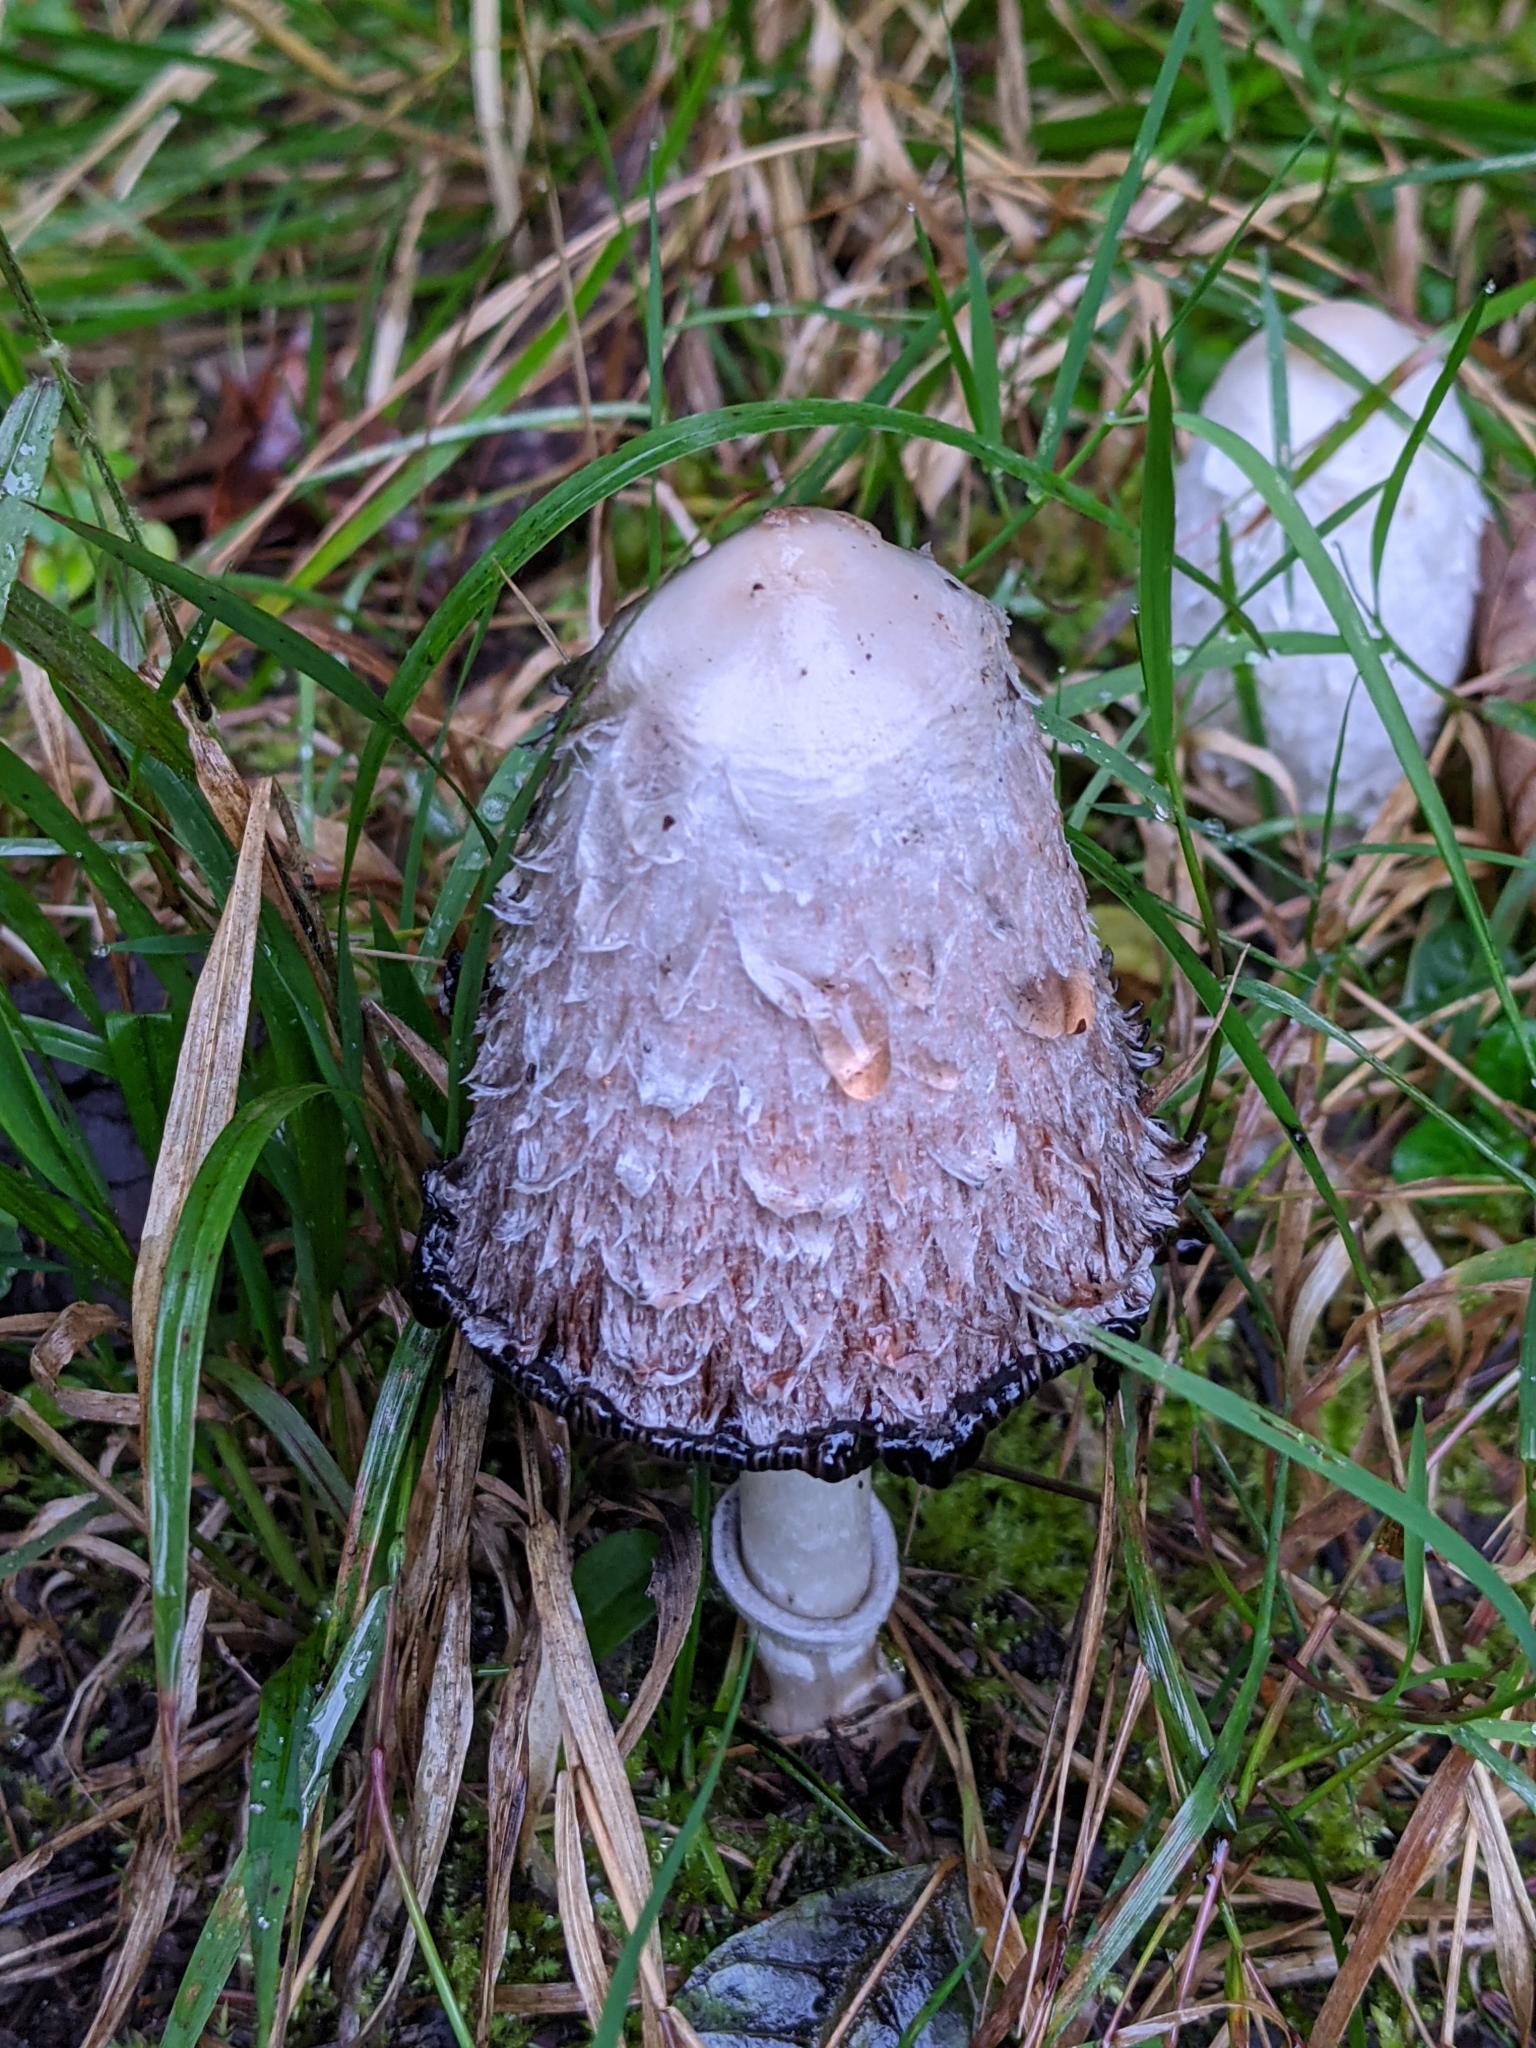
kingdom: Fungi
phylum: Basidiomycota
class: Agaricomycetes
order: Agaricales
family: Agaricaceae
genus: Coprinus
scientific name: Coprinus comatus
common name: Lawyer's wig
